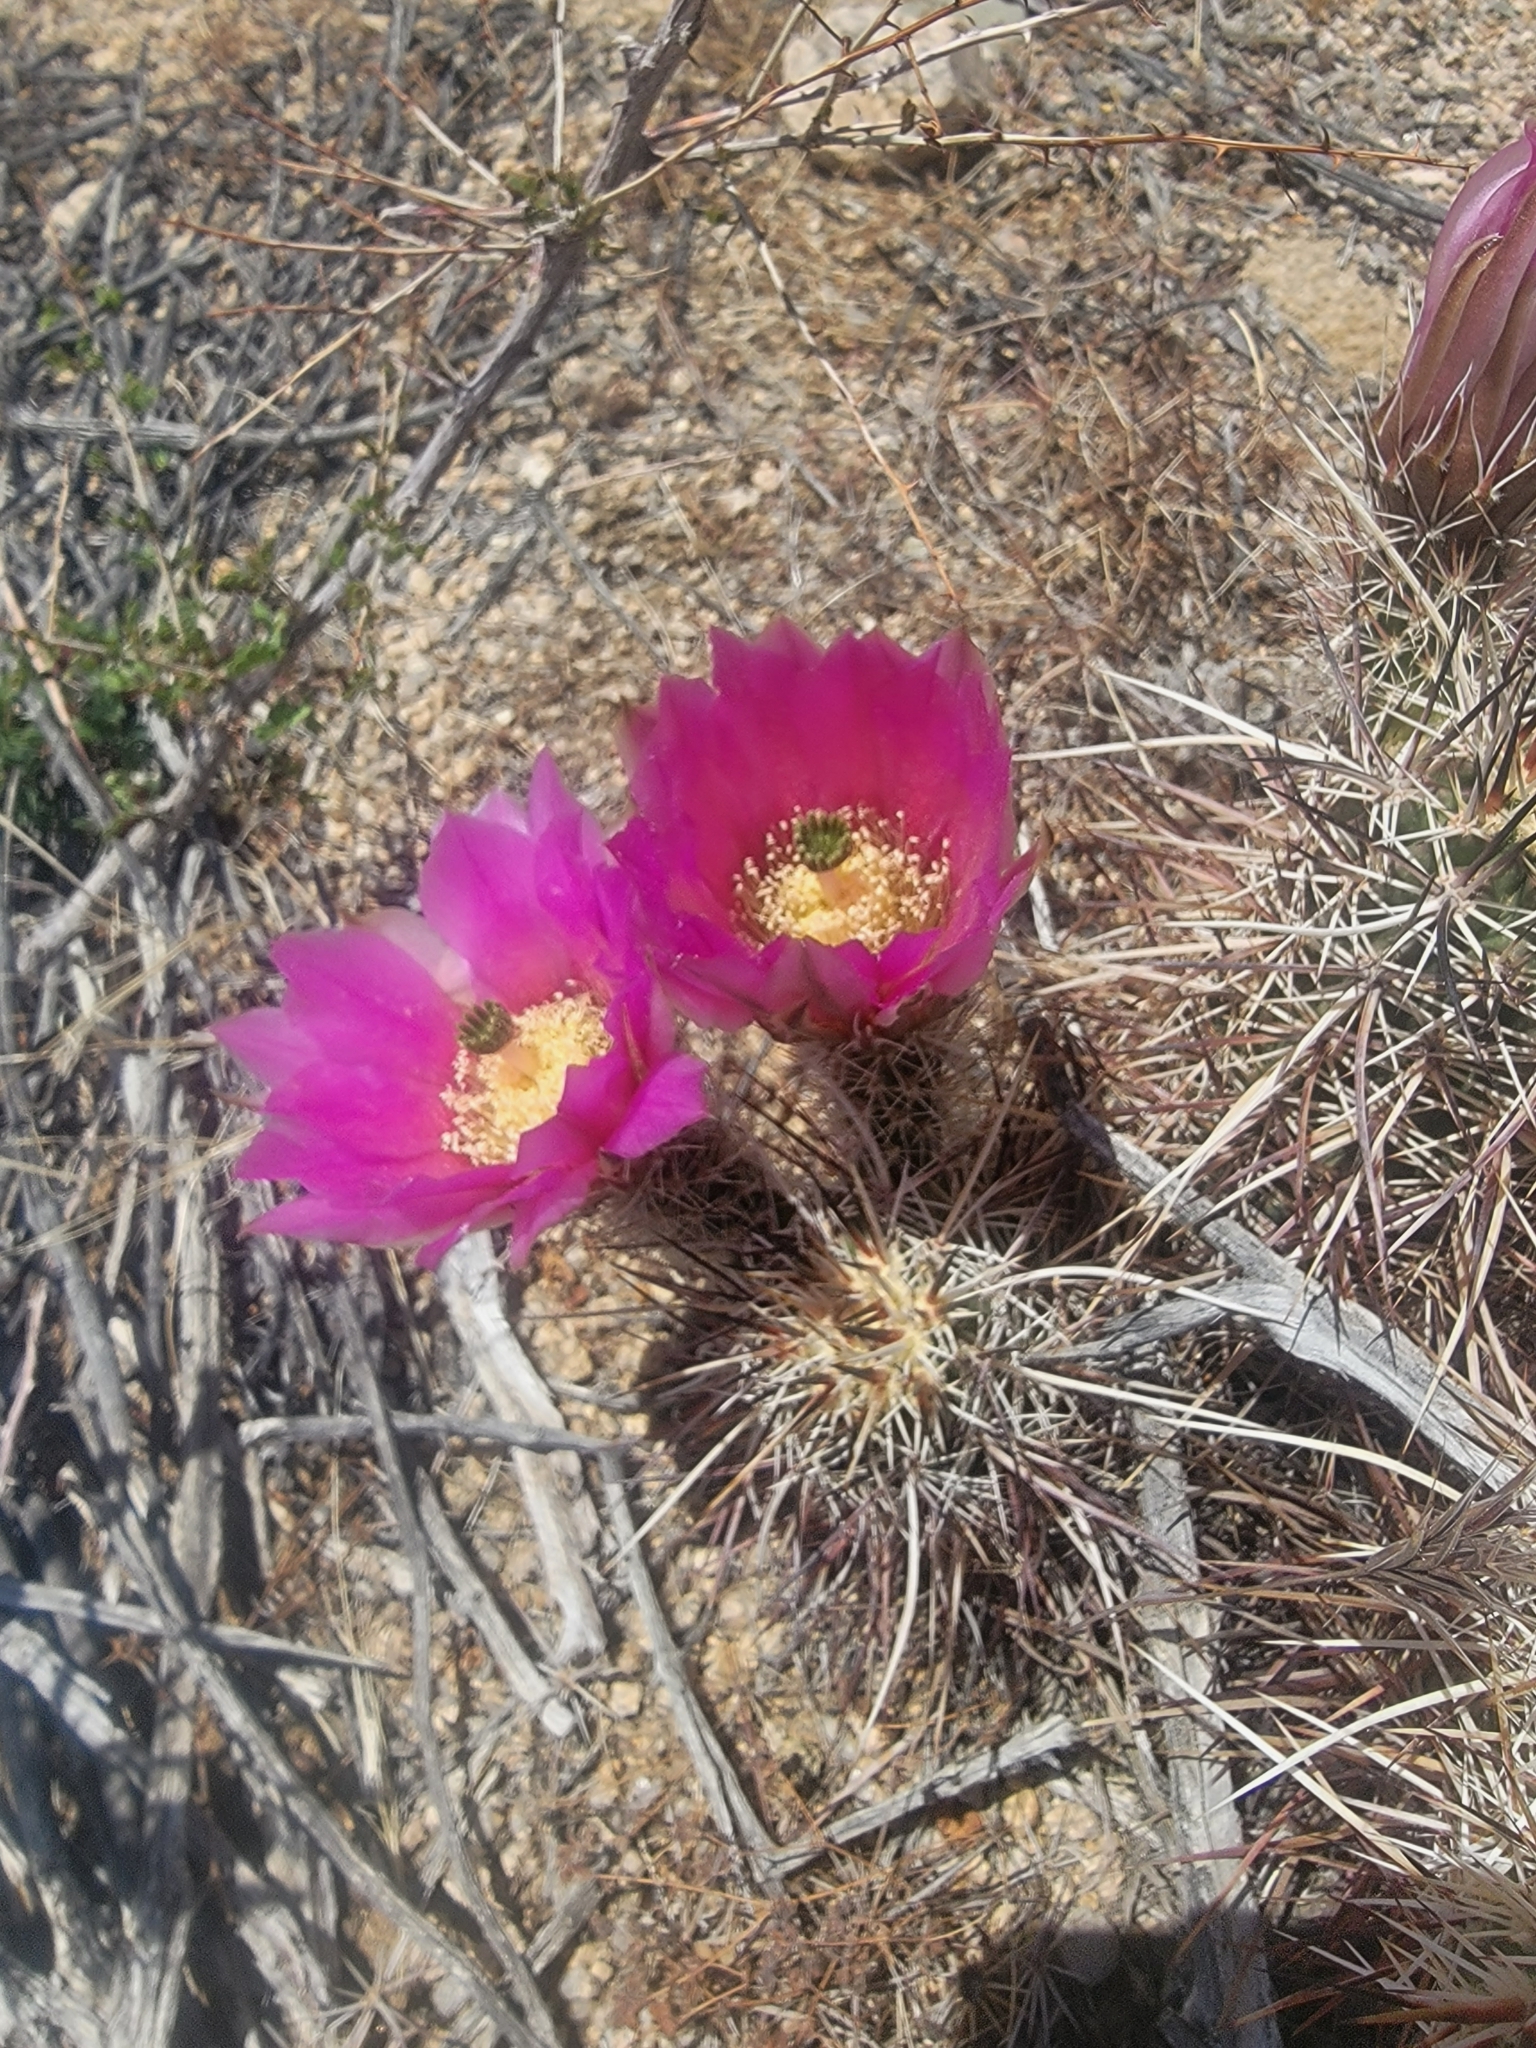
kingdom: Plantae
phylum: Tracheophyta
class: Magnoliopsida
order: Caryophyllales
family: Cactaceae
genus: Echinocereus
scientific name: Echinocereus engelmannii
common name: Engelmann's hedgehog cactus
